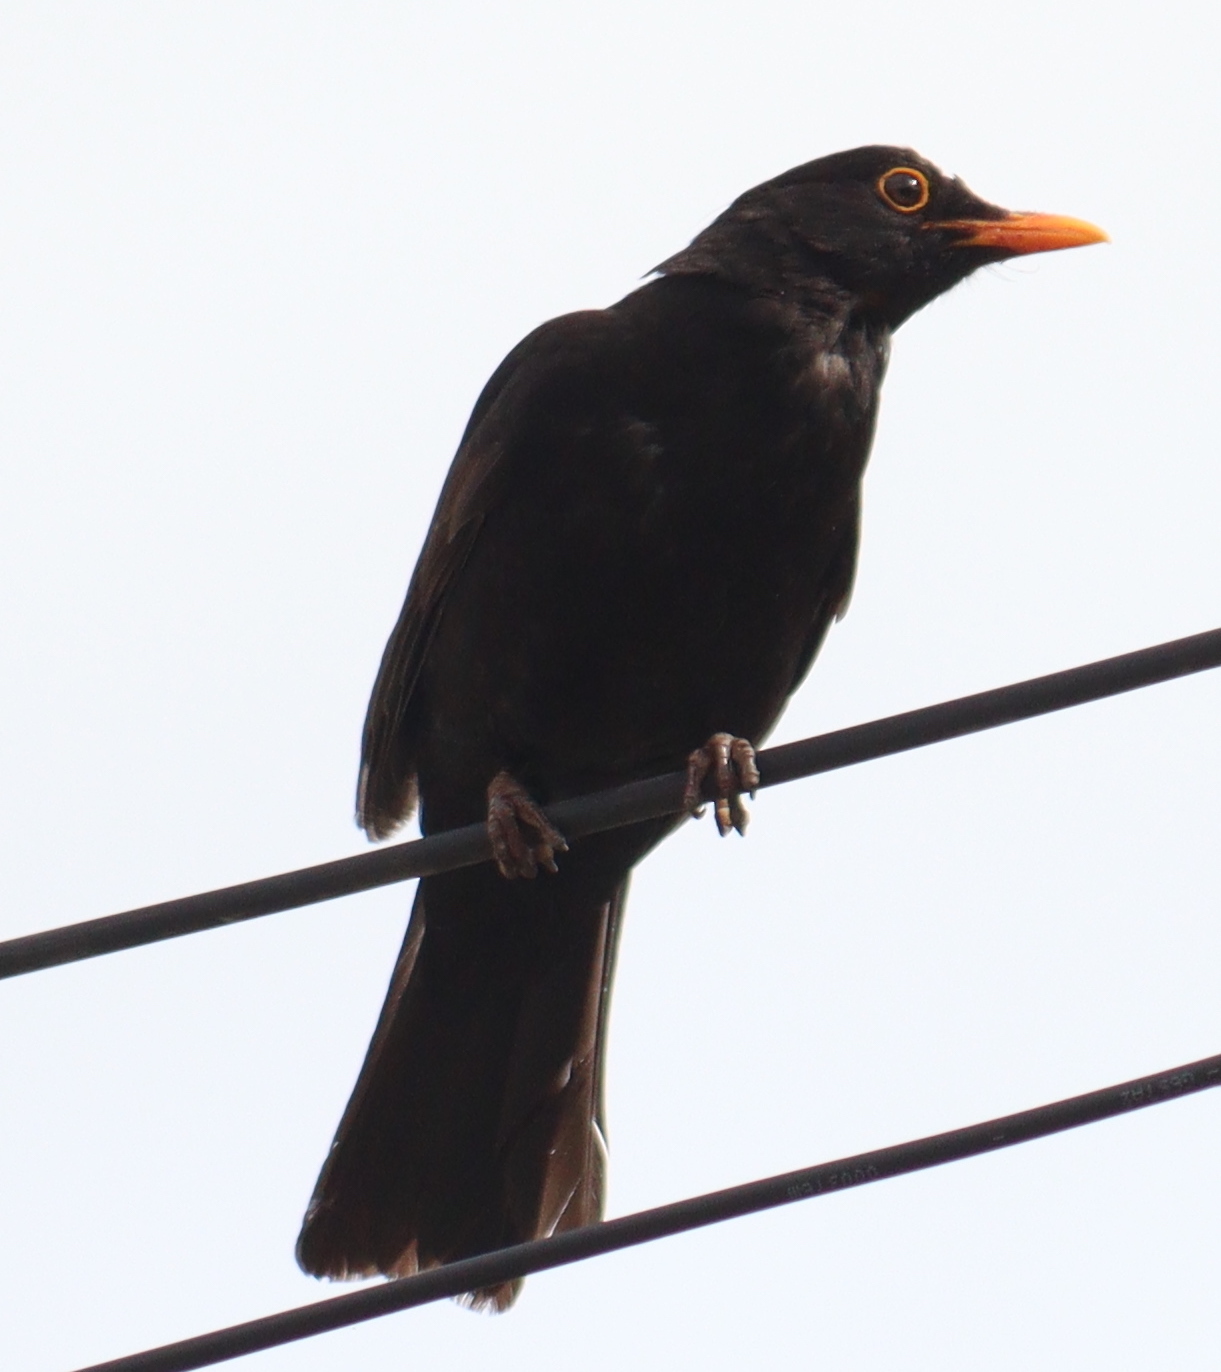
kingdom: Animalia
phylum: Chordata
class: Aves
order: Passeriformes
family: Turdidae
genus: Turdus
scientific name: Turdus merula
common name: Common blackbird
